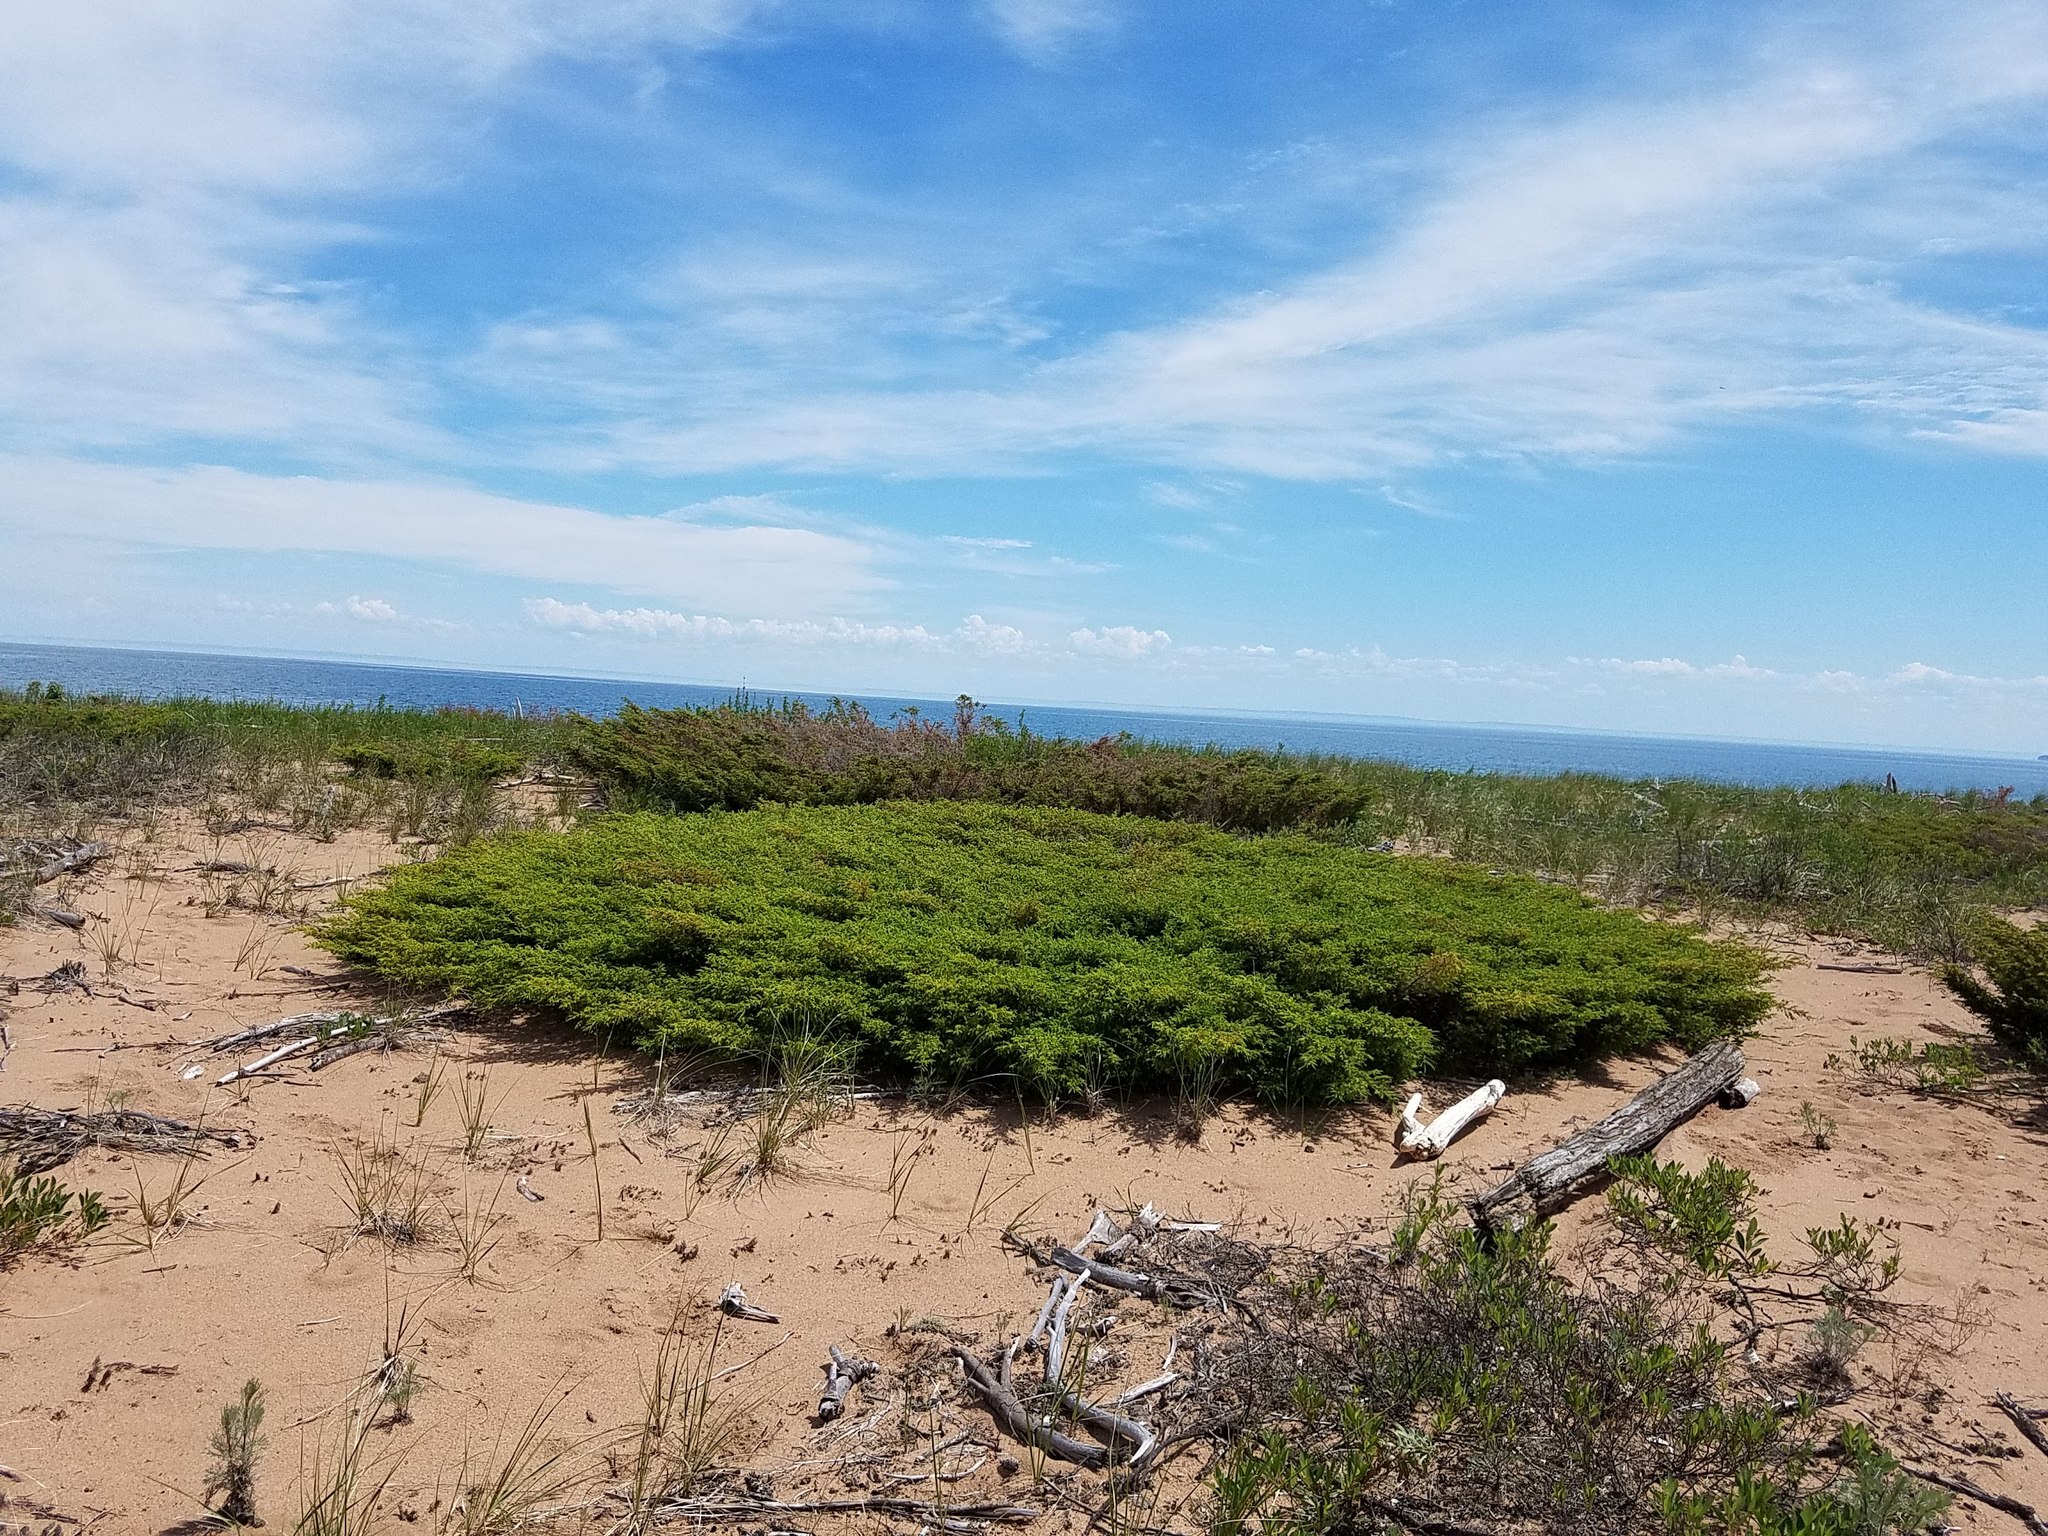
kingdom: Plantae
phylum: Tracheophyta
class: Pinopsida
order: Pinales
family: Cupressaceae
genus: Juniperus
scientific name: Juniperus communis
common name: Common juniper
